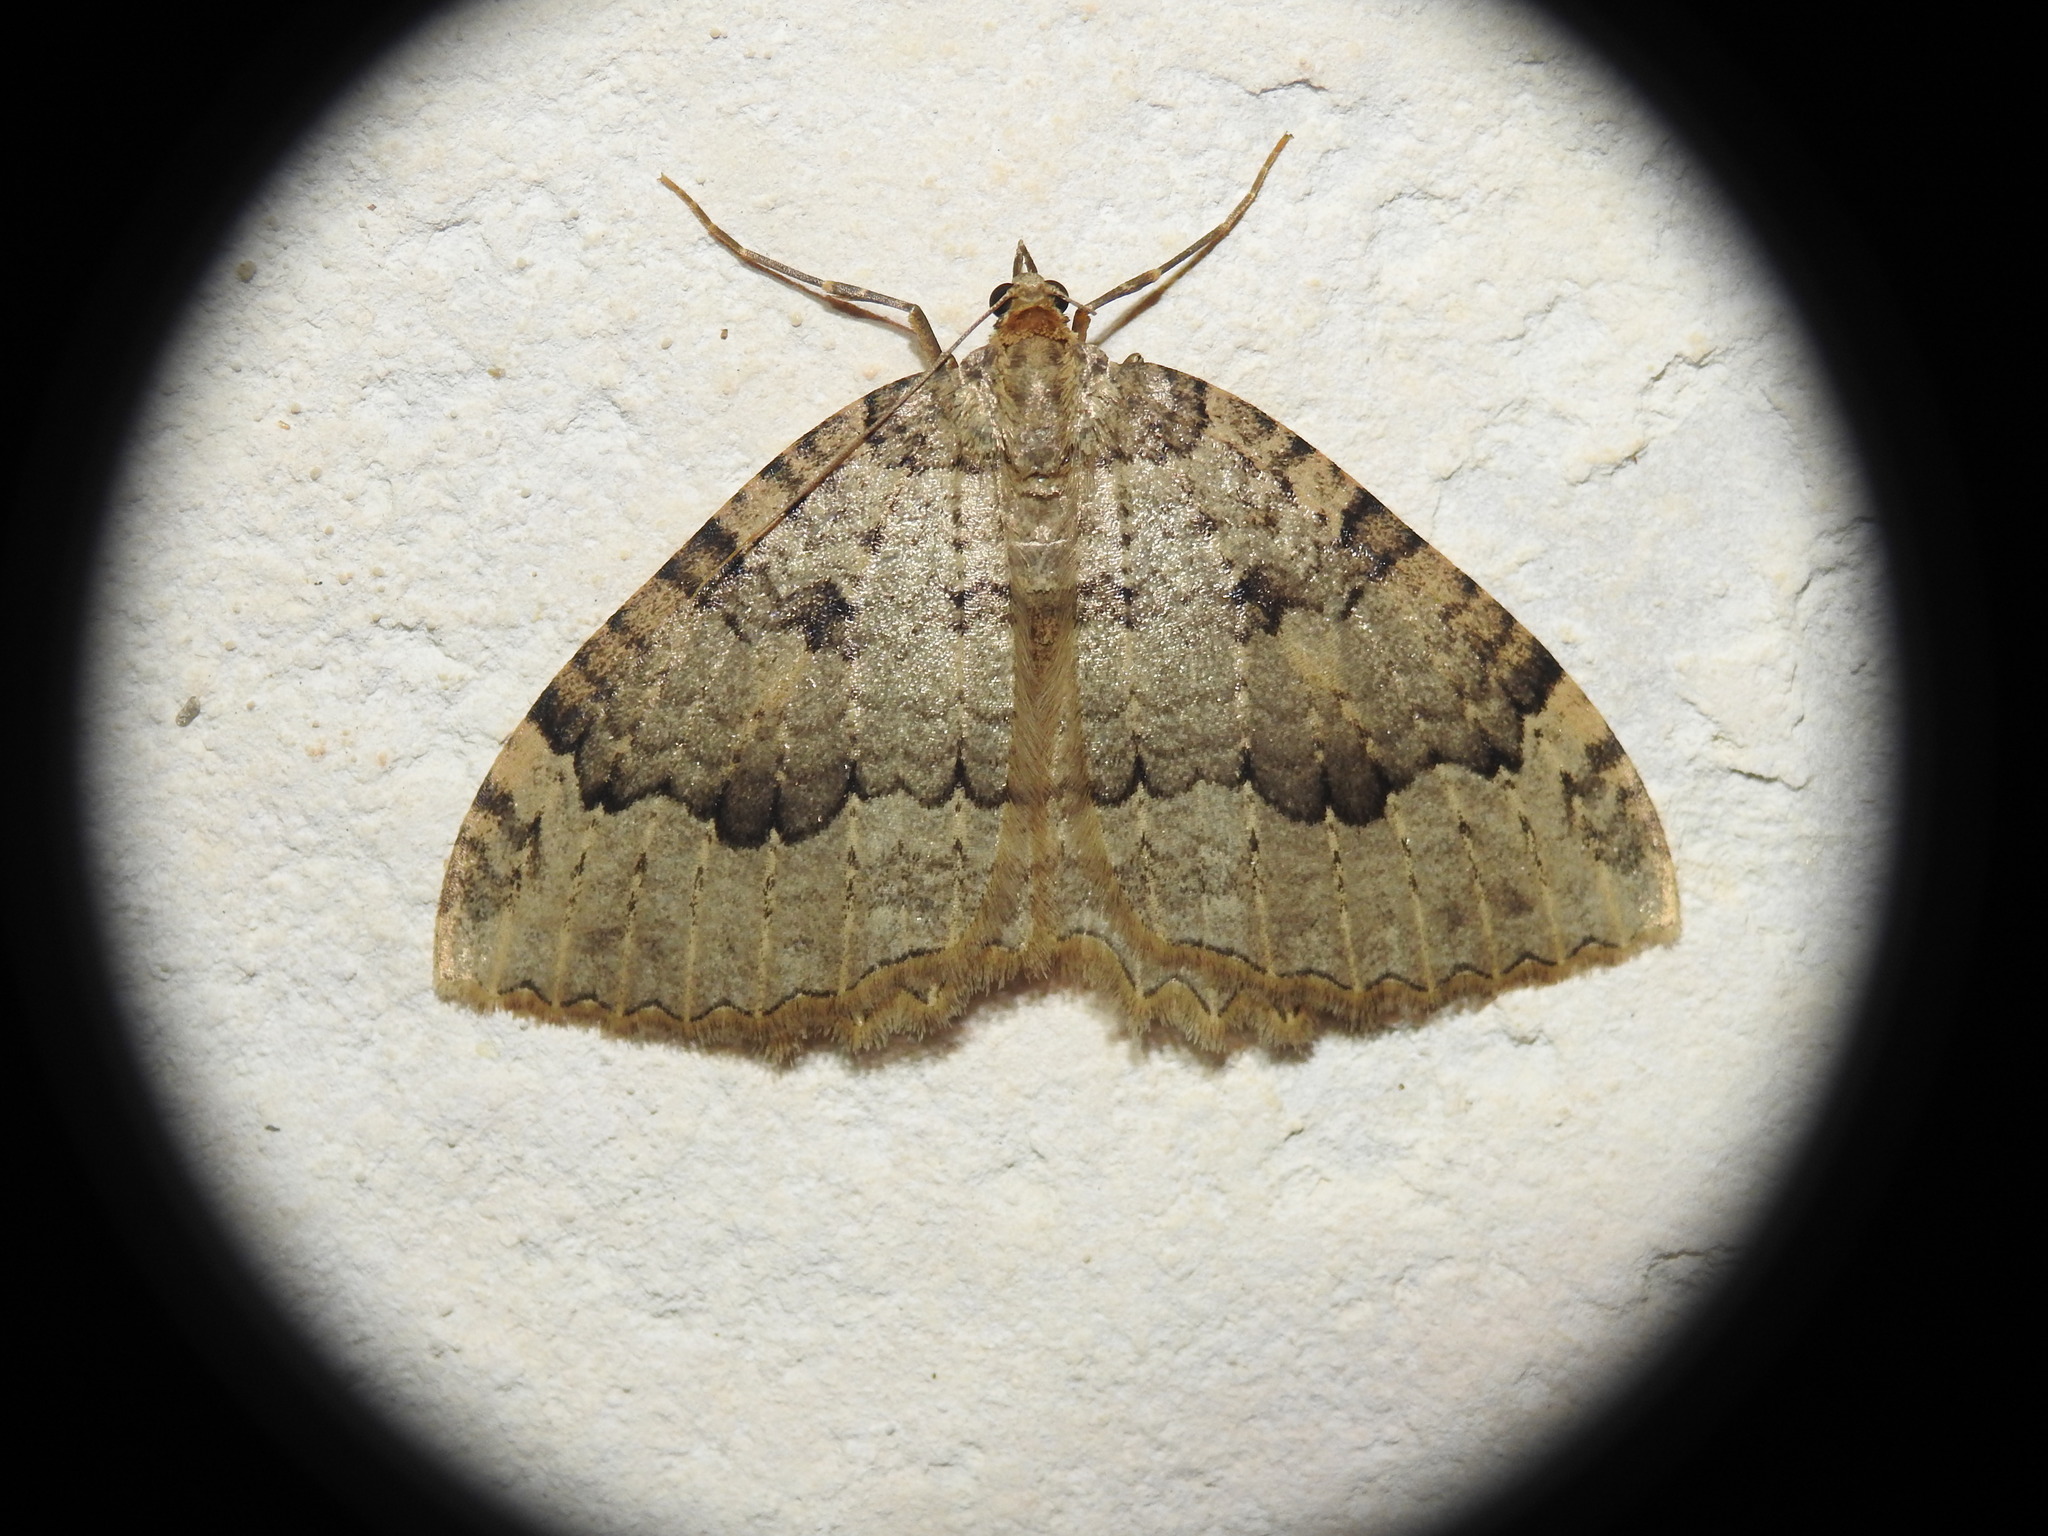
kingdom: Animalia
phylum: Arthropoda
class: Insecta
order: Lepidoptera
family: Geometridae
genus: Triphosa
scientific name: Triphosa tauteli
